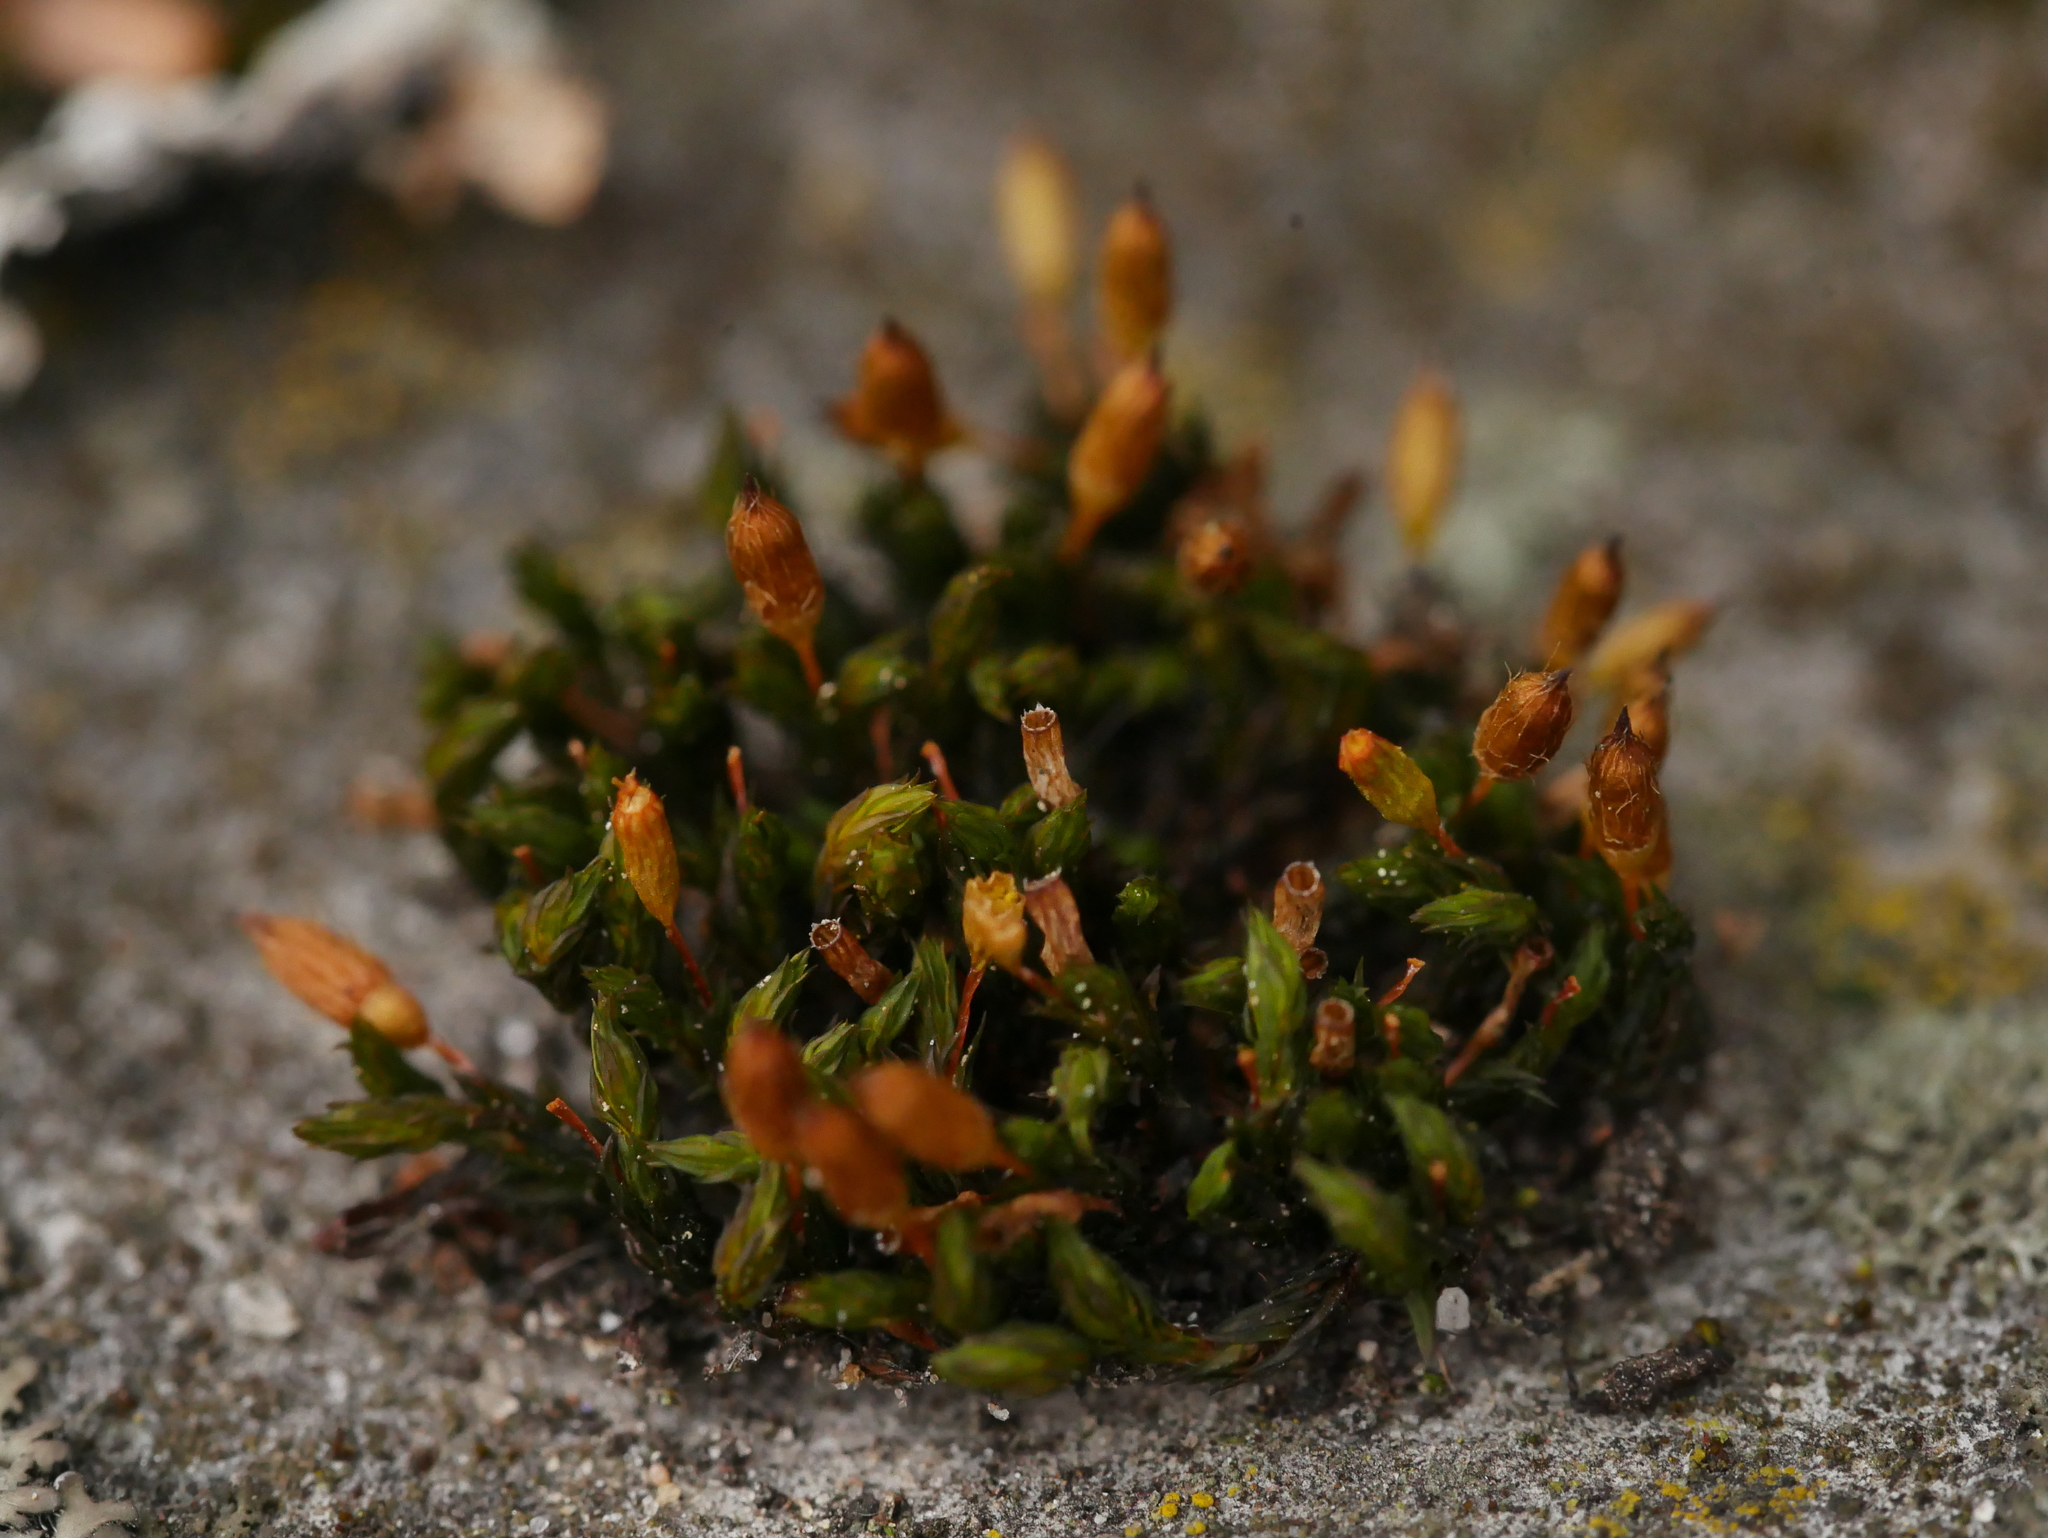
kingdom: Plantae
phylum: Bryophyta
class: Bryopsida
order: Orthotrichales
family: Orthotrichaceae
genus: Orthotrichum
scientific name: Orthotrichum anomalum
